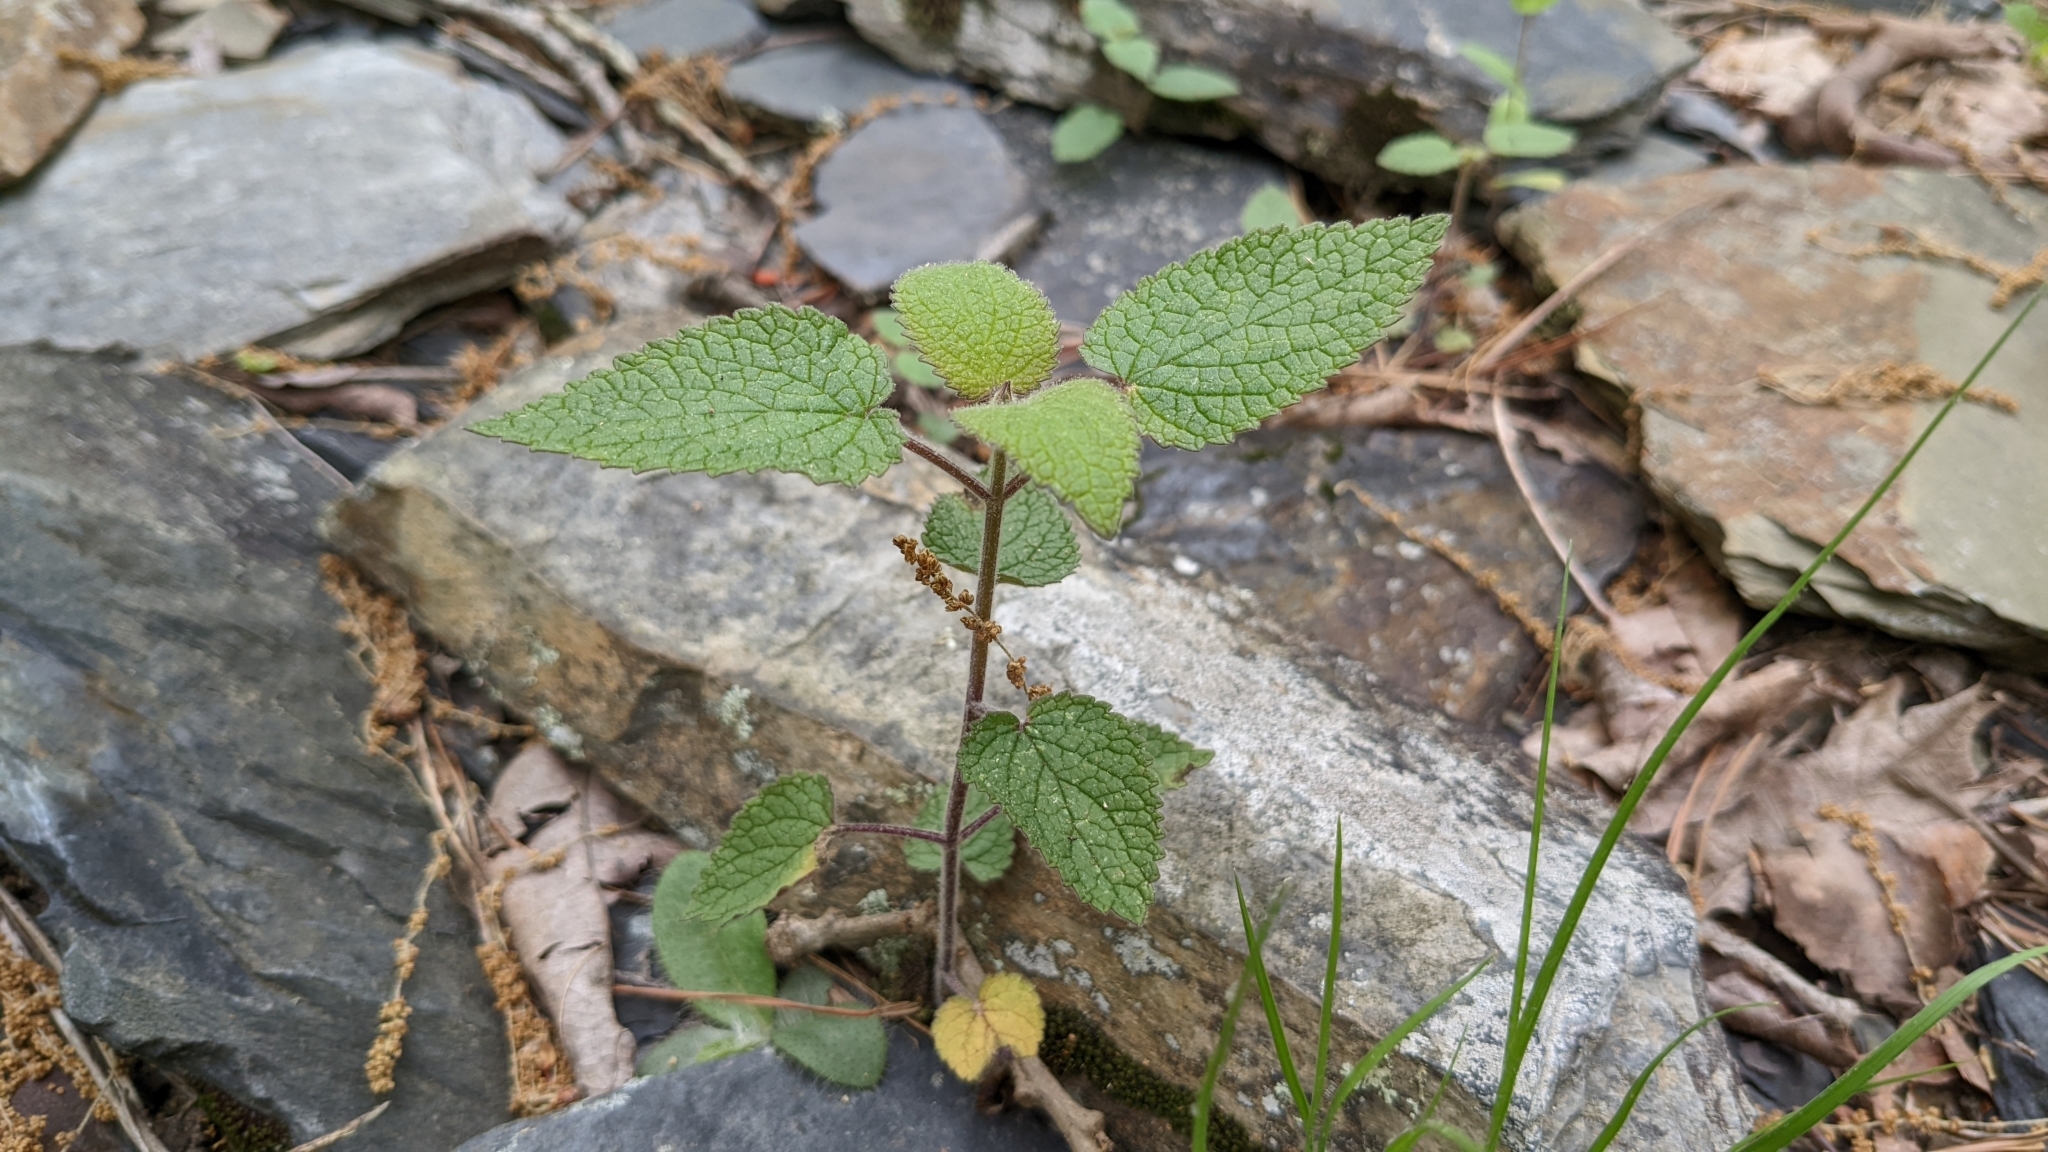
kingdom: Plantae
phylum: Tracheophyta
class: Magnoliopsida
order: Lamiales
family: Lamiaceae
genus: Scutellaria
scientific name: Scutellaria ovata
